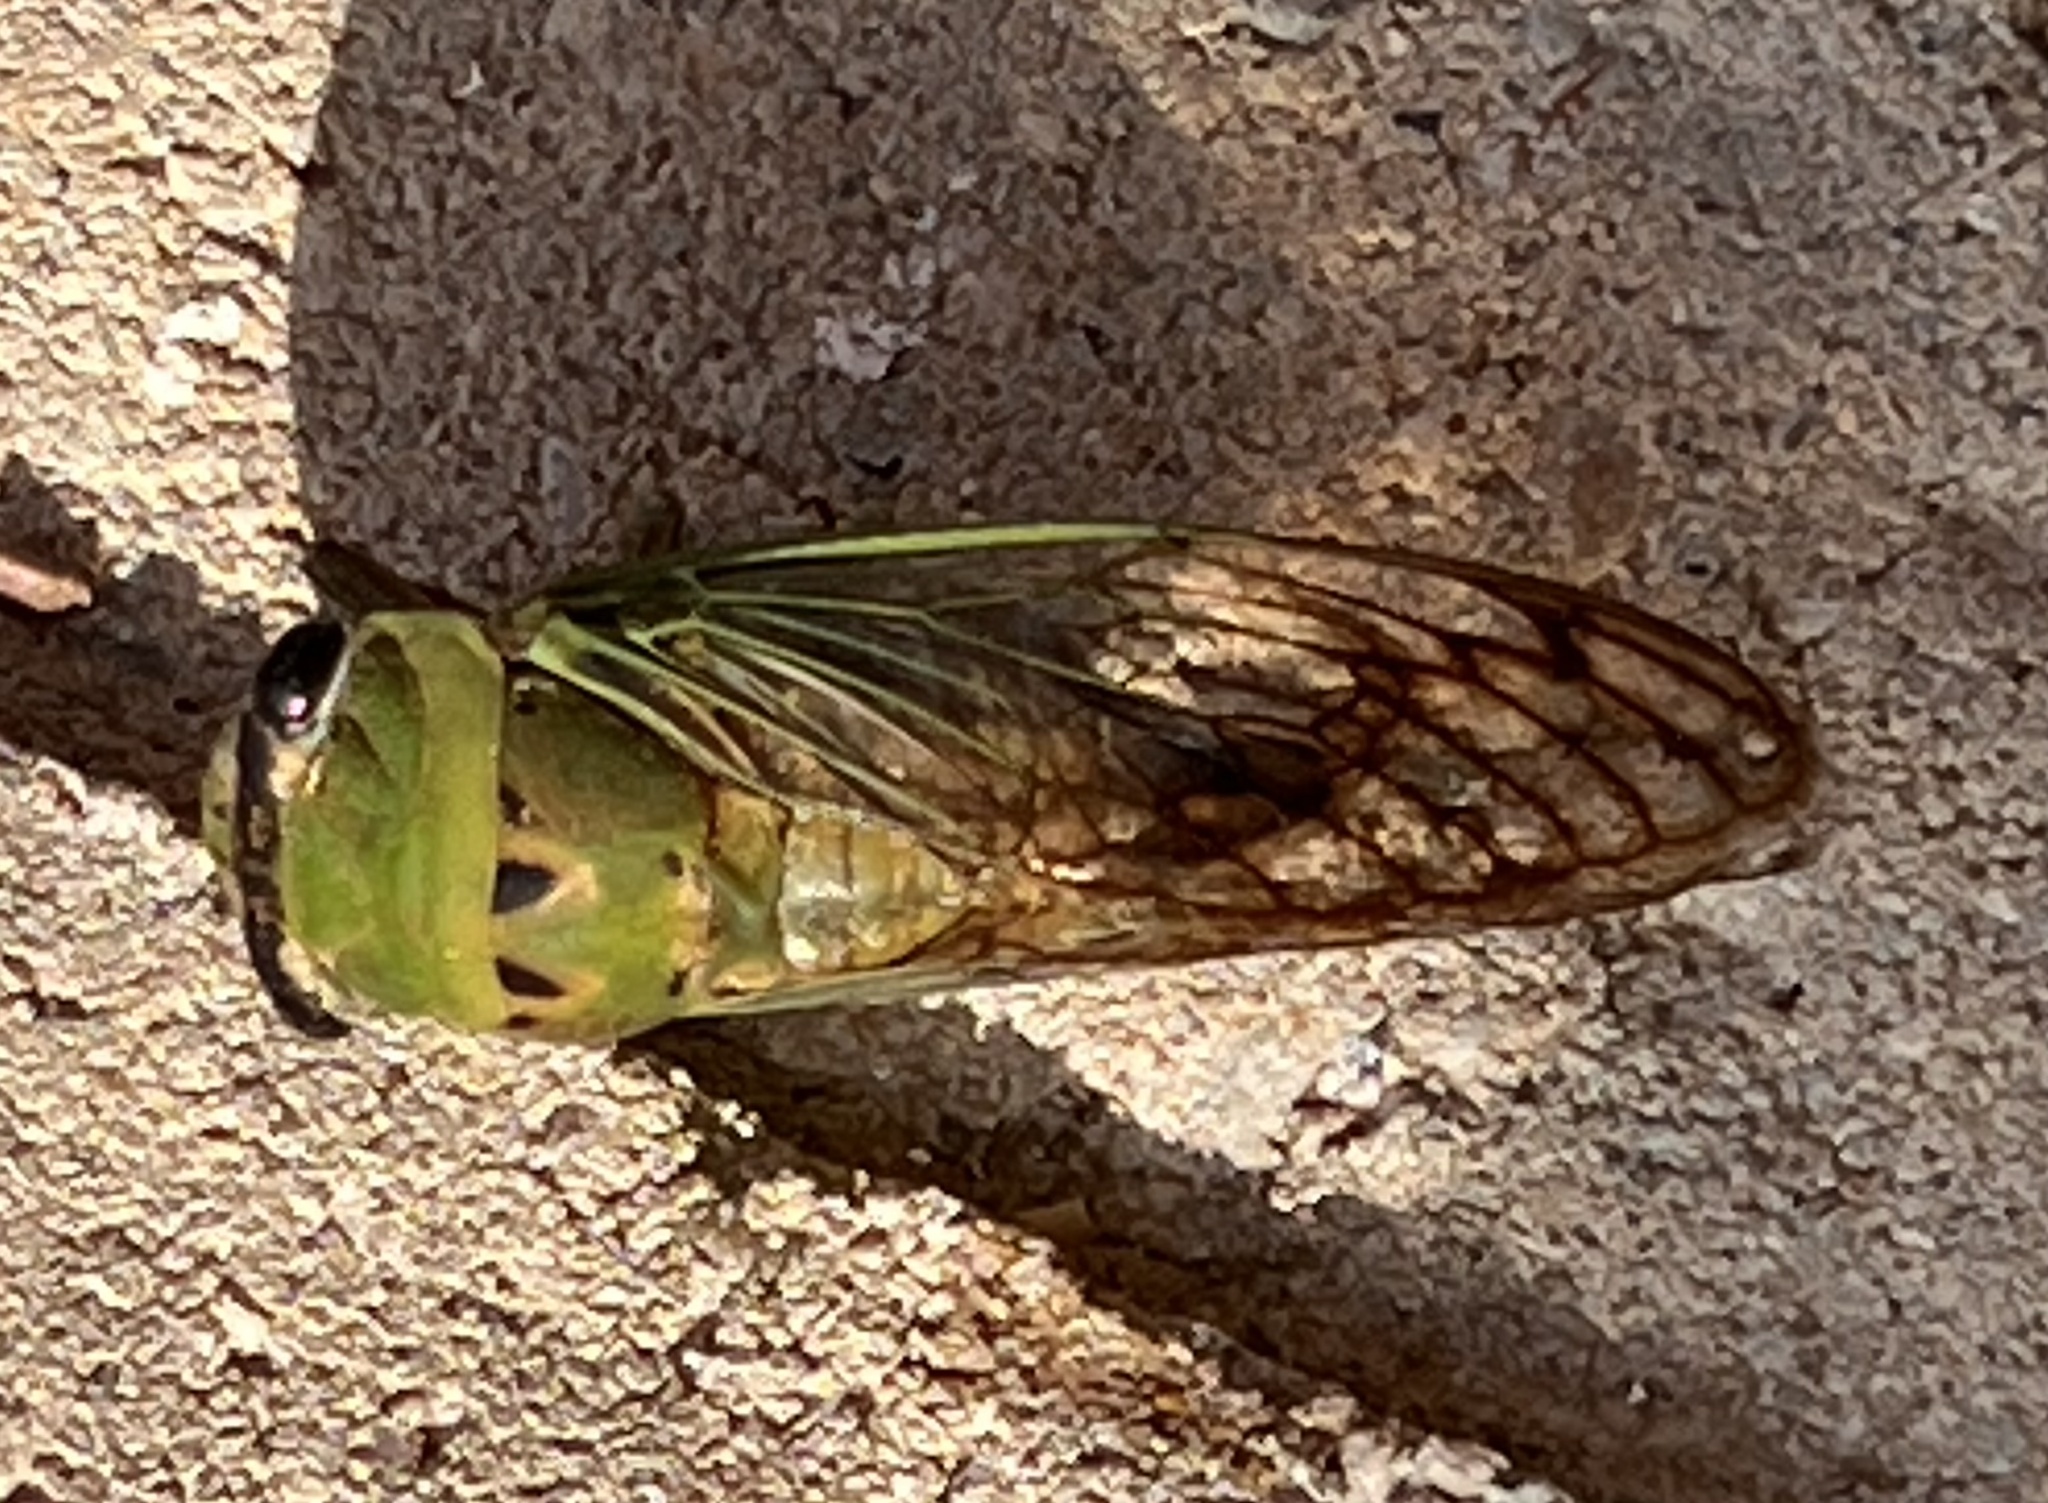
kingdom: Animalia
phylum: Arthropoda
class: Insecta
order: Hemiptera
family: Cicadidae
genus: Neotibicen
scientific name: Neotibicen superbus
